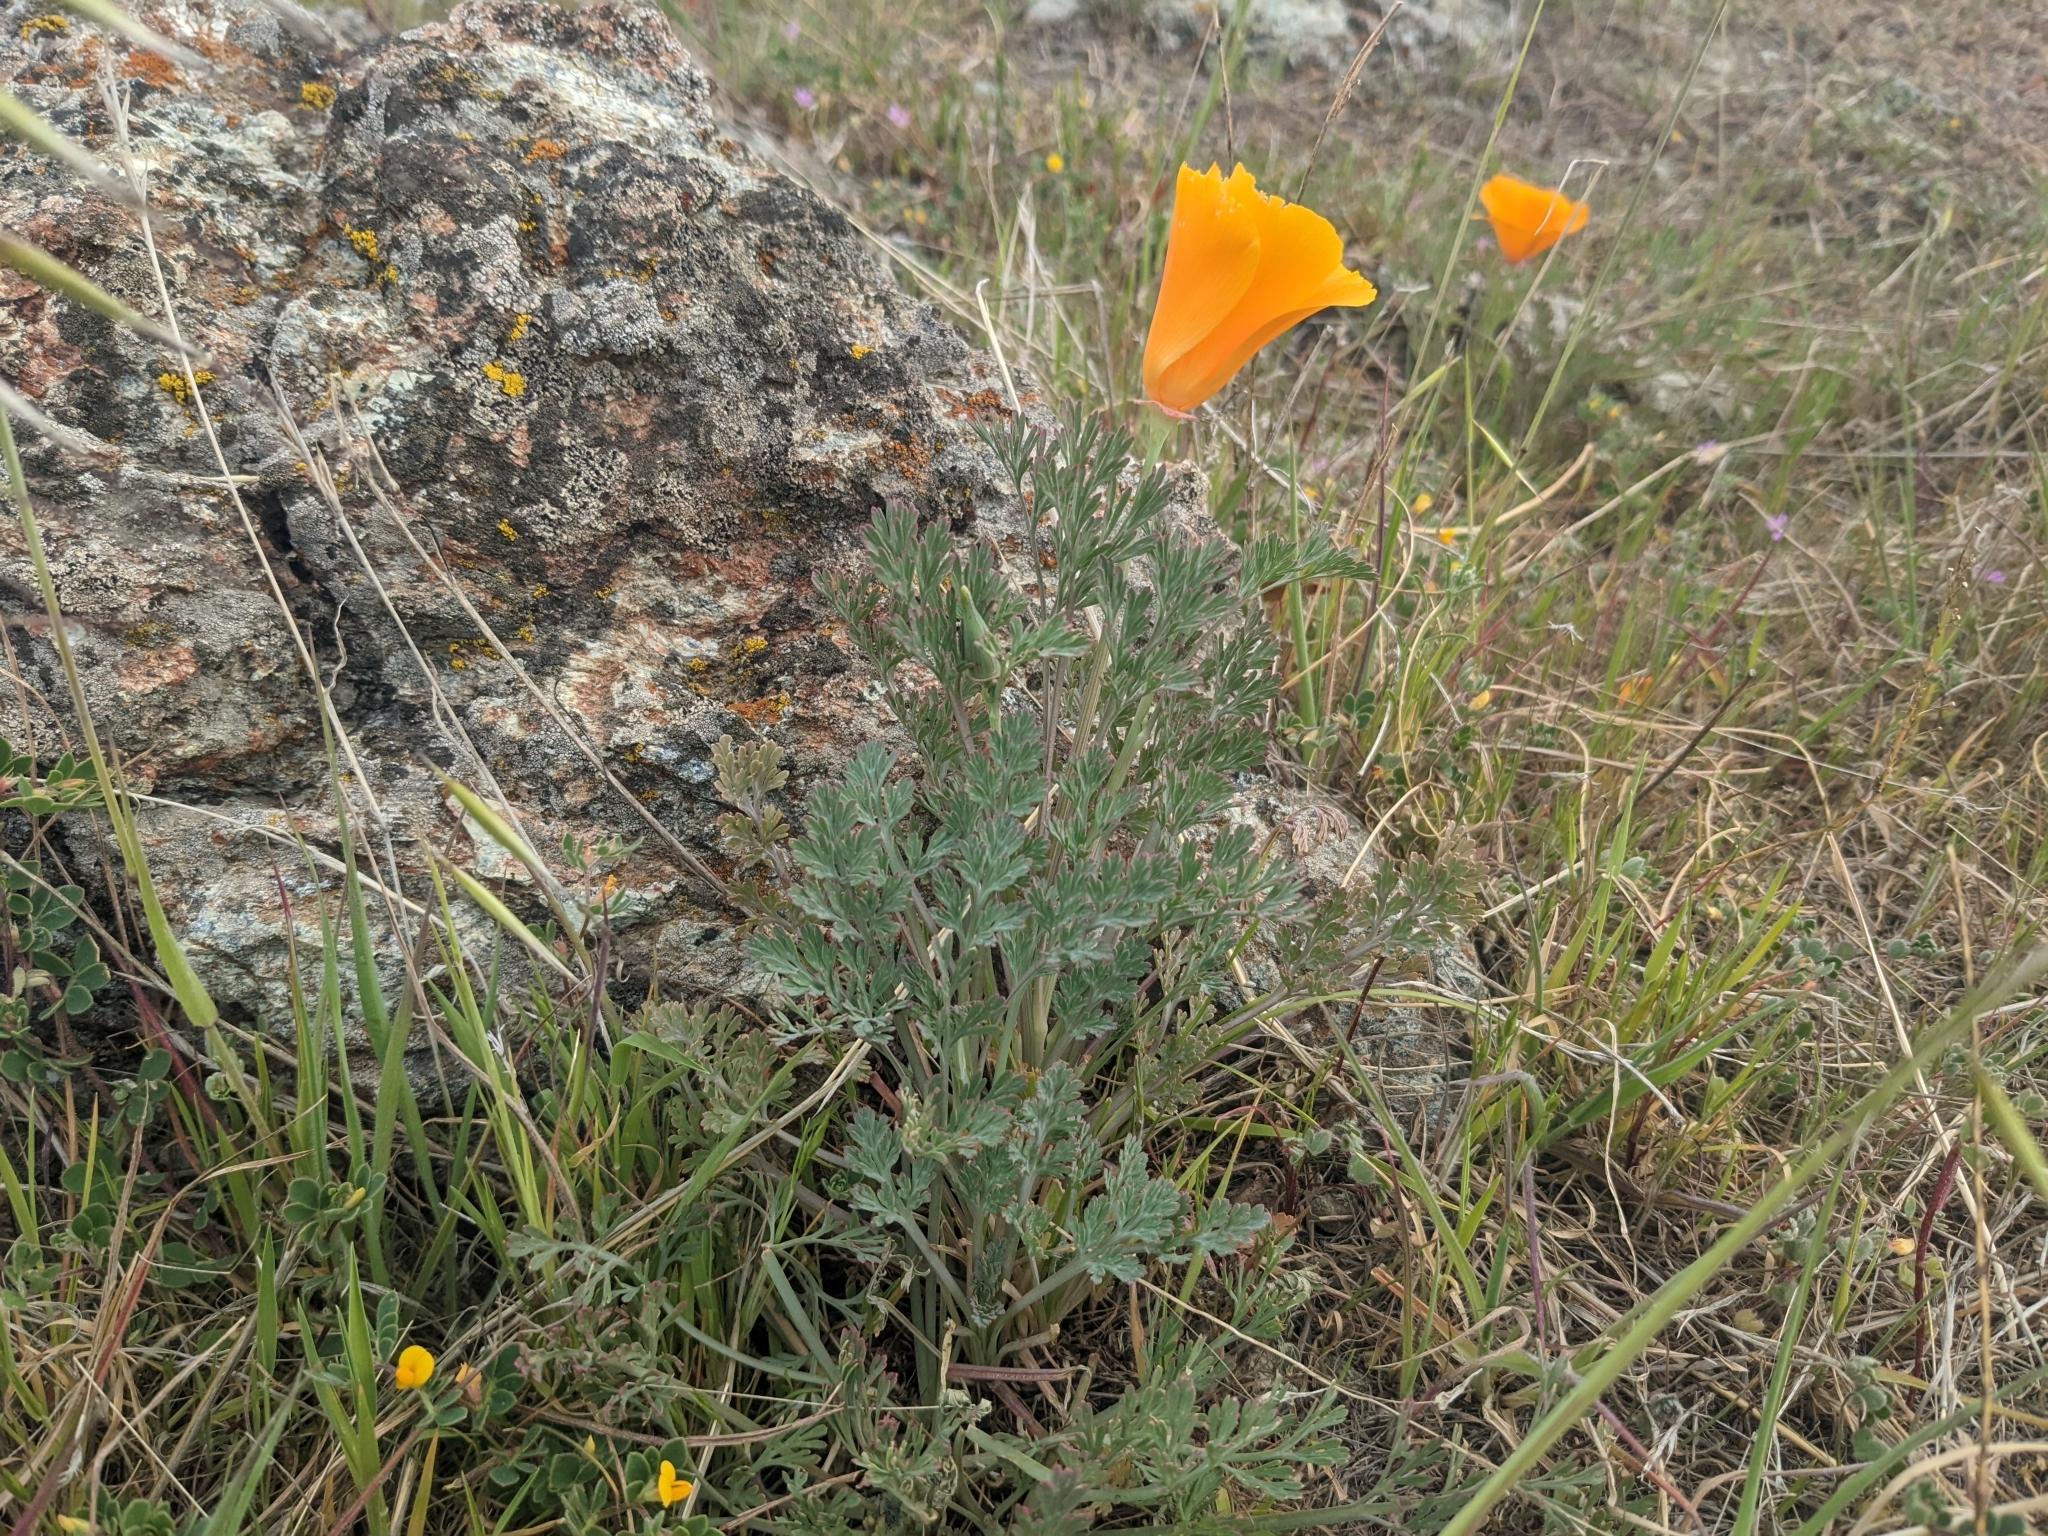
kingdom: Plantae
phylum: Tracheophyta
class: Magnoliopsida
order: Ranunculales
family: Papaveraceae
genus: Eschscholzia
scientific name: Eschscholzia californica
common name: California poppy
